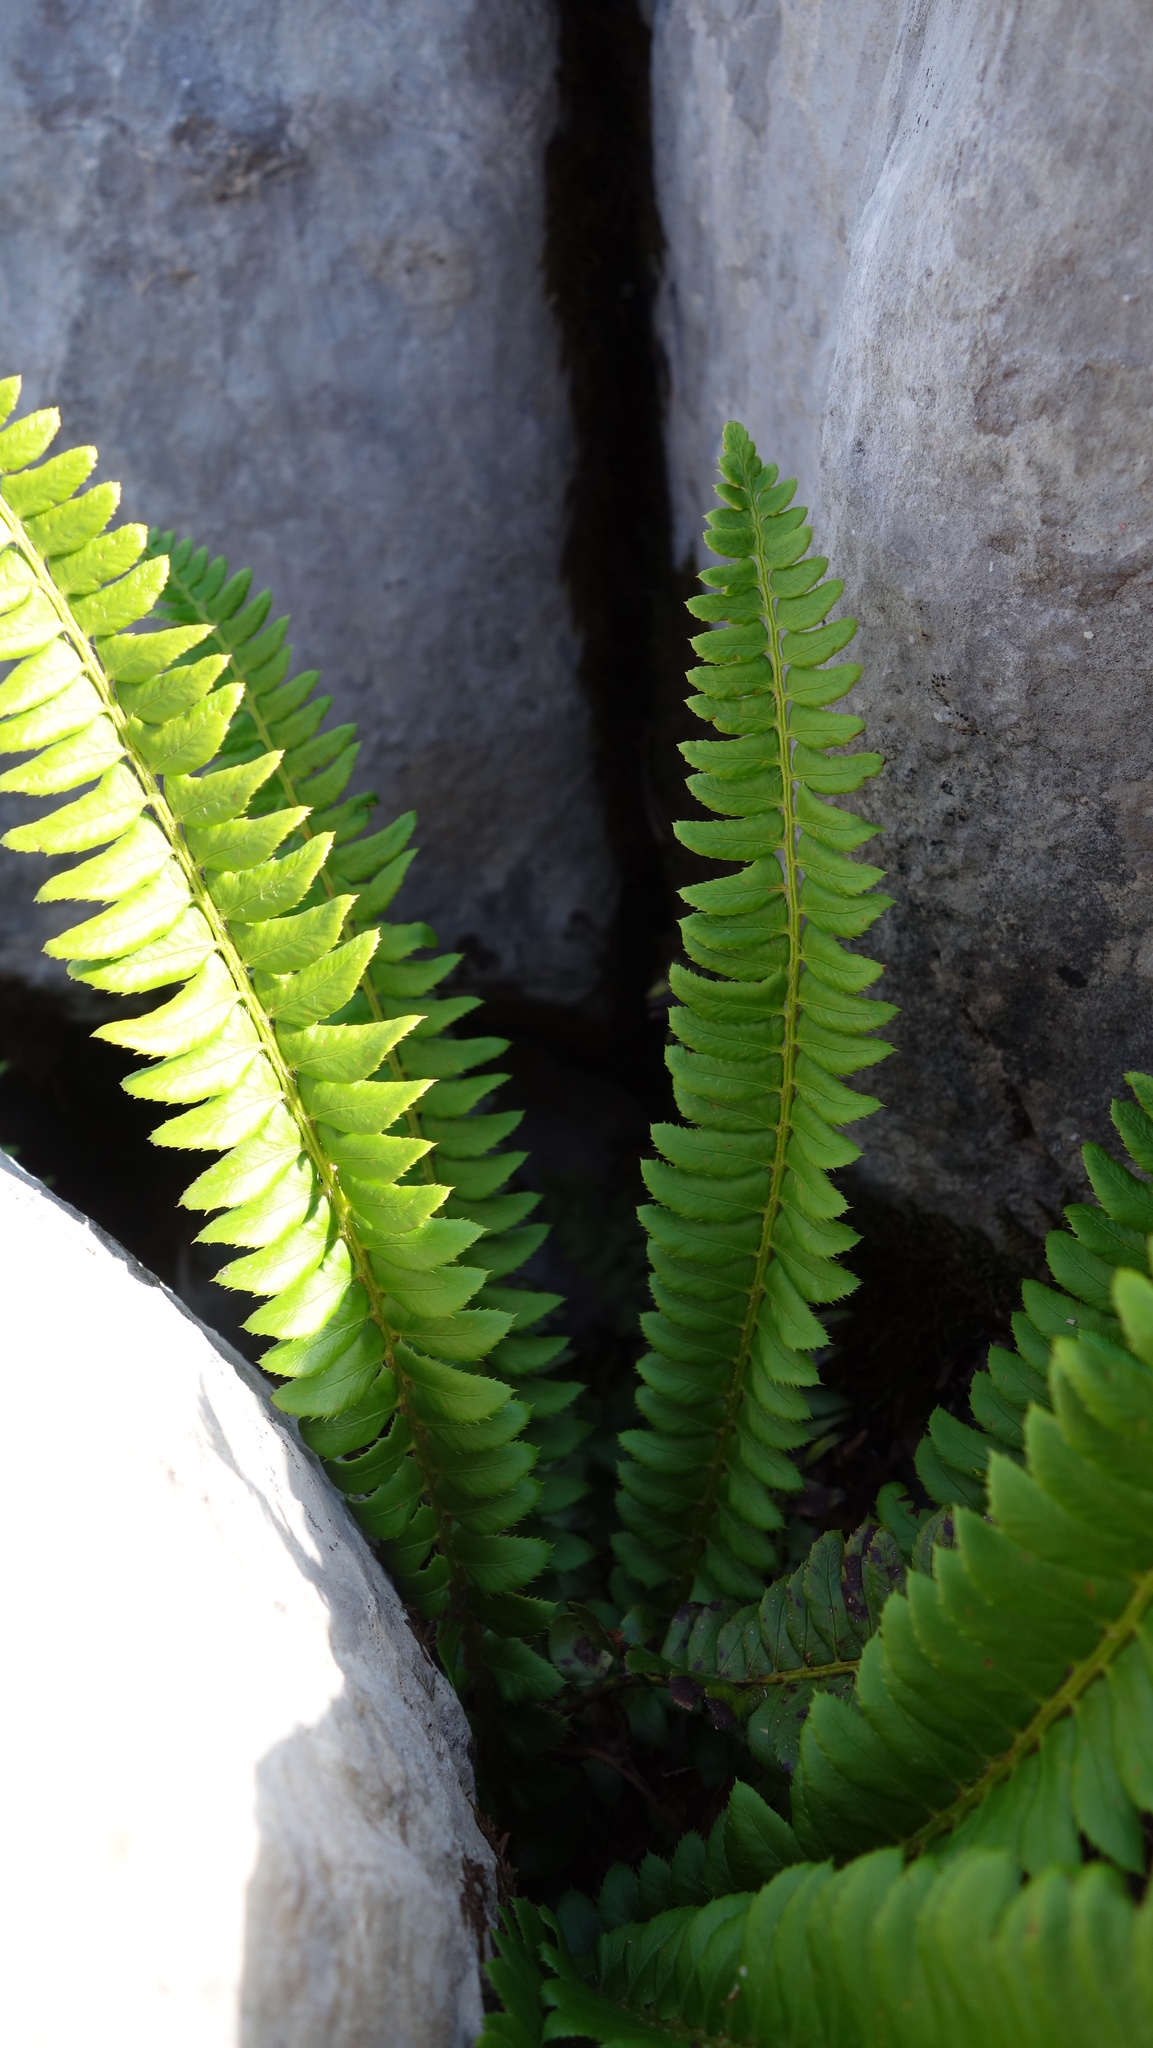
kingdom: Plantae
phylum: Tracheophyta
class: Polypodiopsida
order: Polypodiales
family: Dryopteridaceae
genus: Polystichum
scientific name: Polystichum lonchitis
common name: Holly fern
